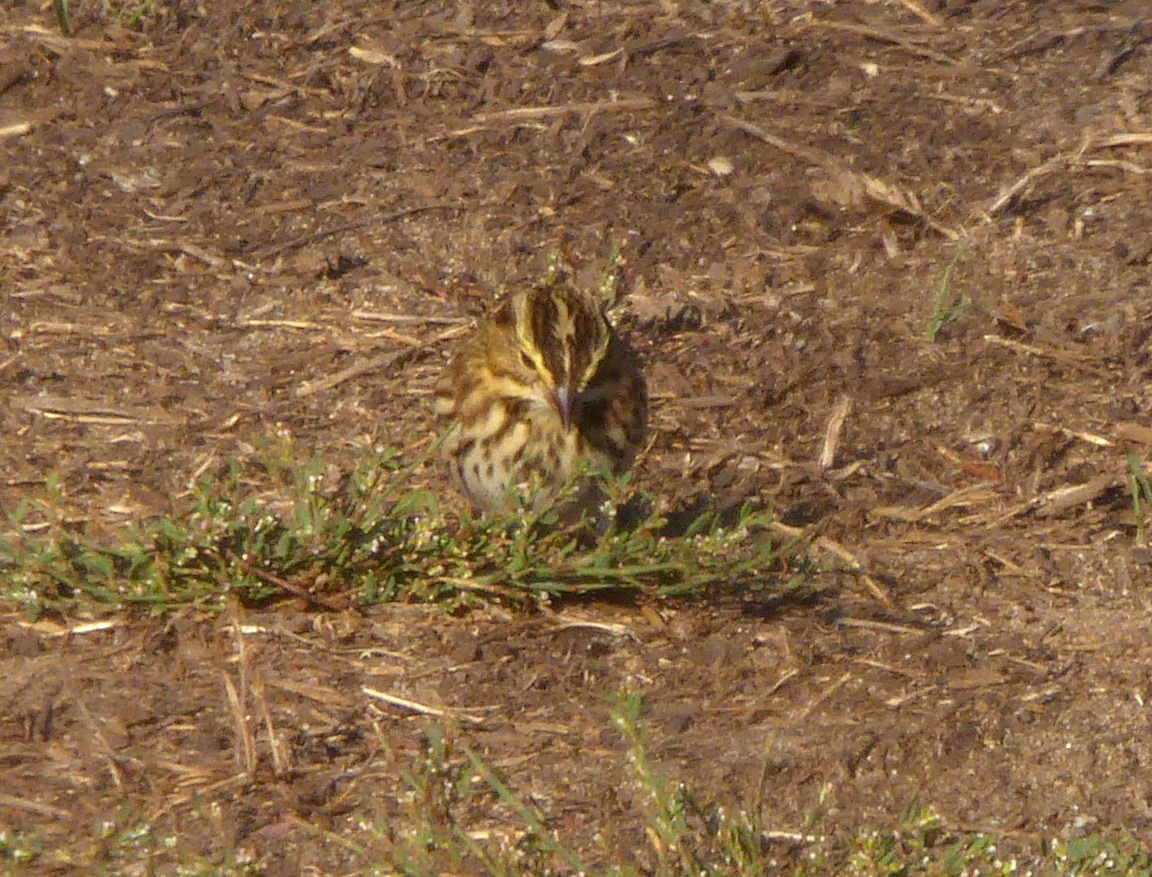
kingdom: Animalia
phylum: Chordata
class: Aves
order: Passeriformes
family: Passerellidae
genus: Passerculus
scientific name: Passerculus sandwichensis
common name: Savannah sparrow
